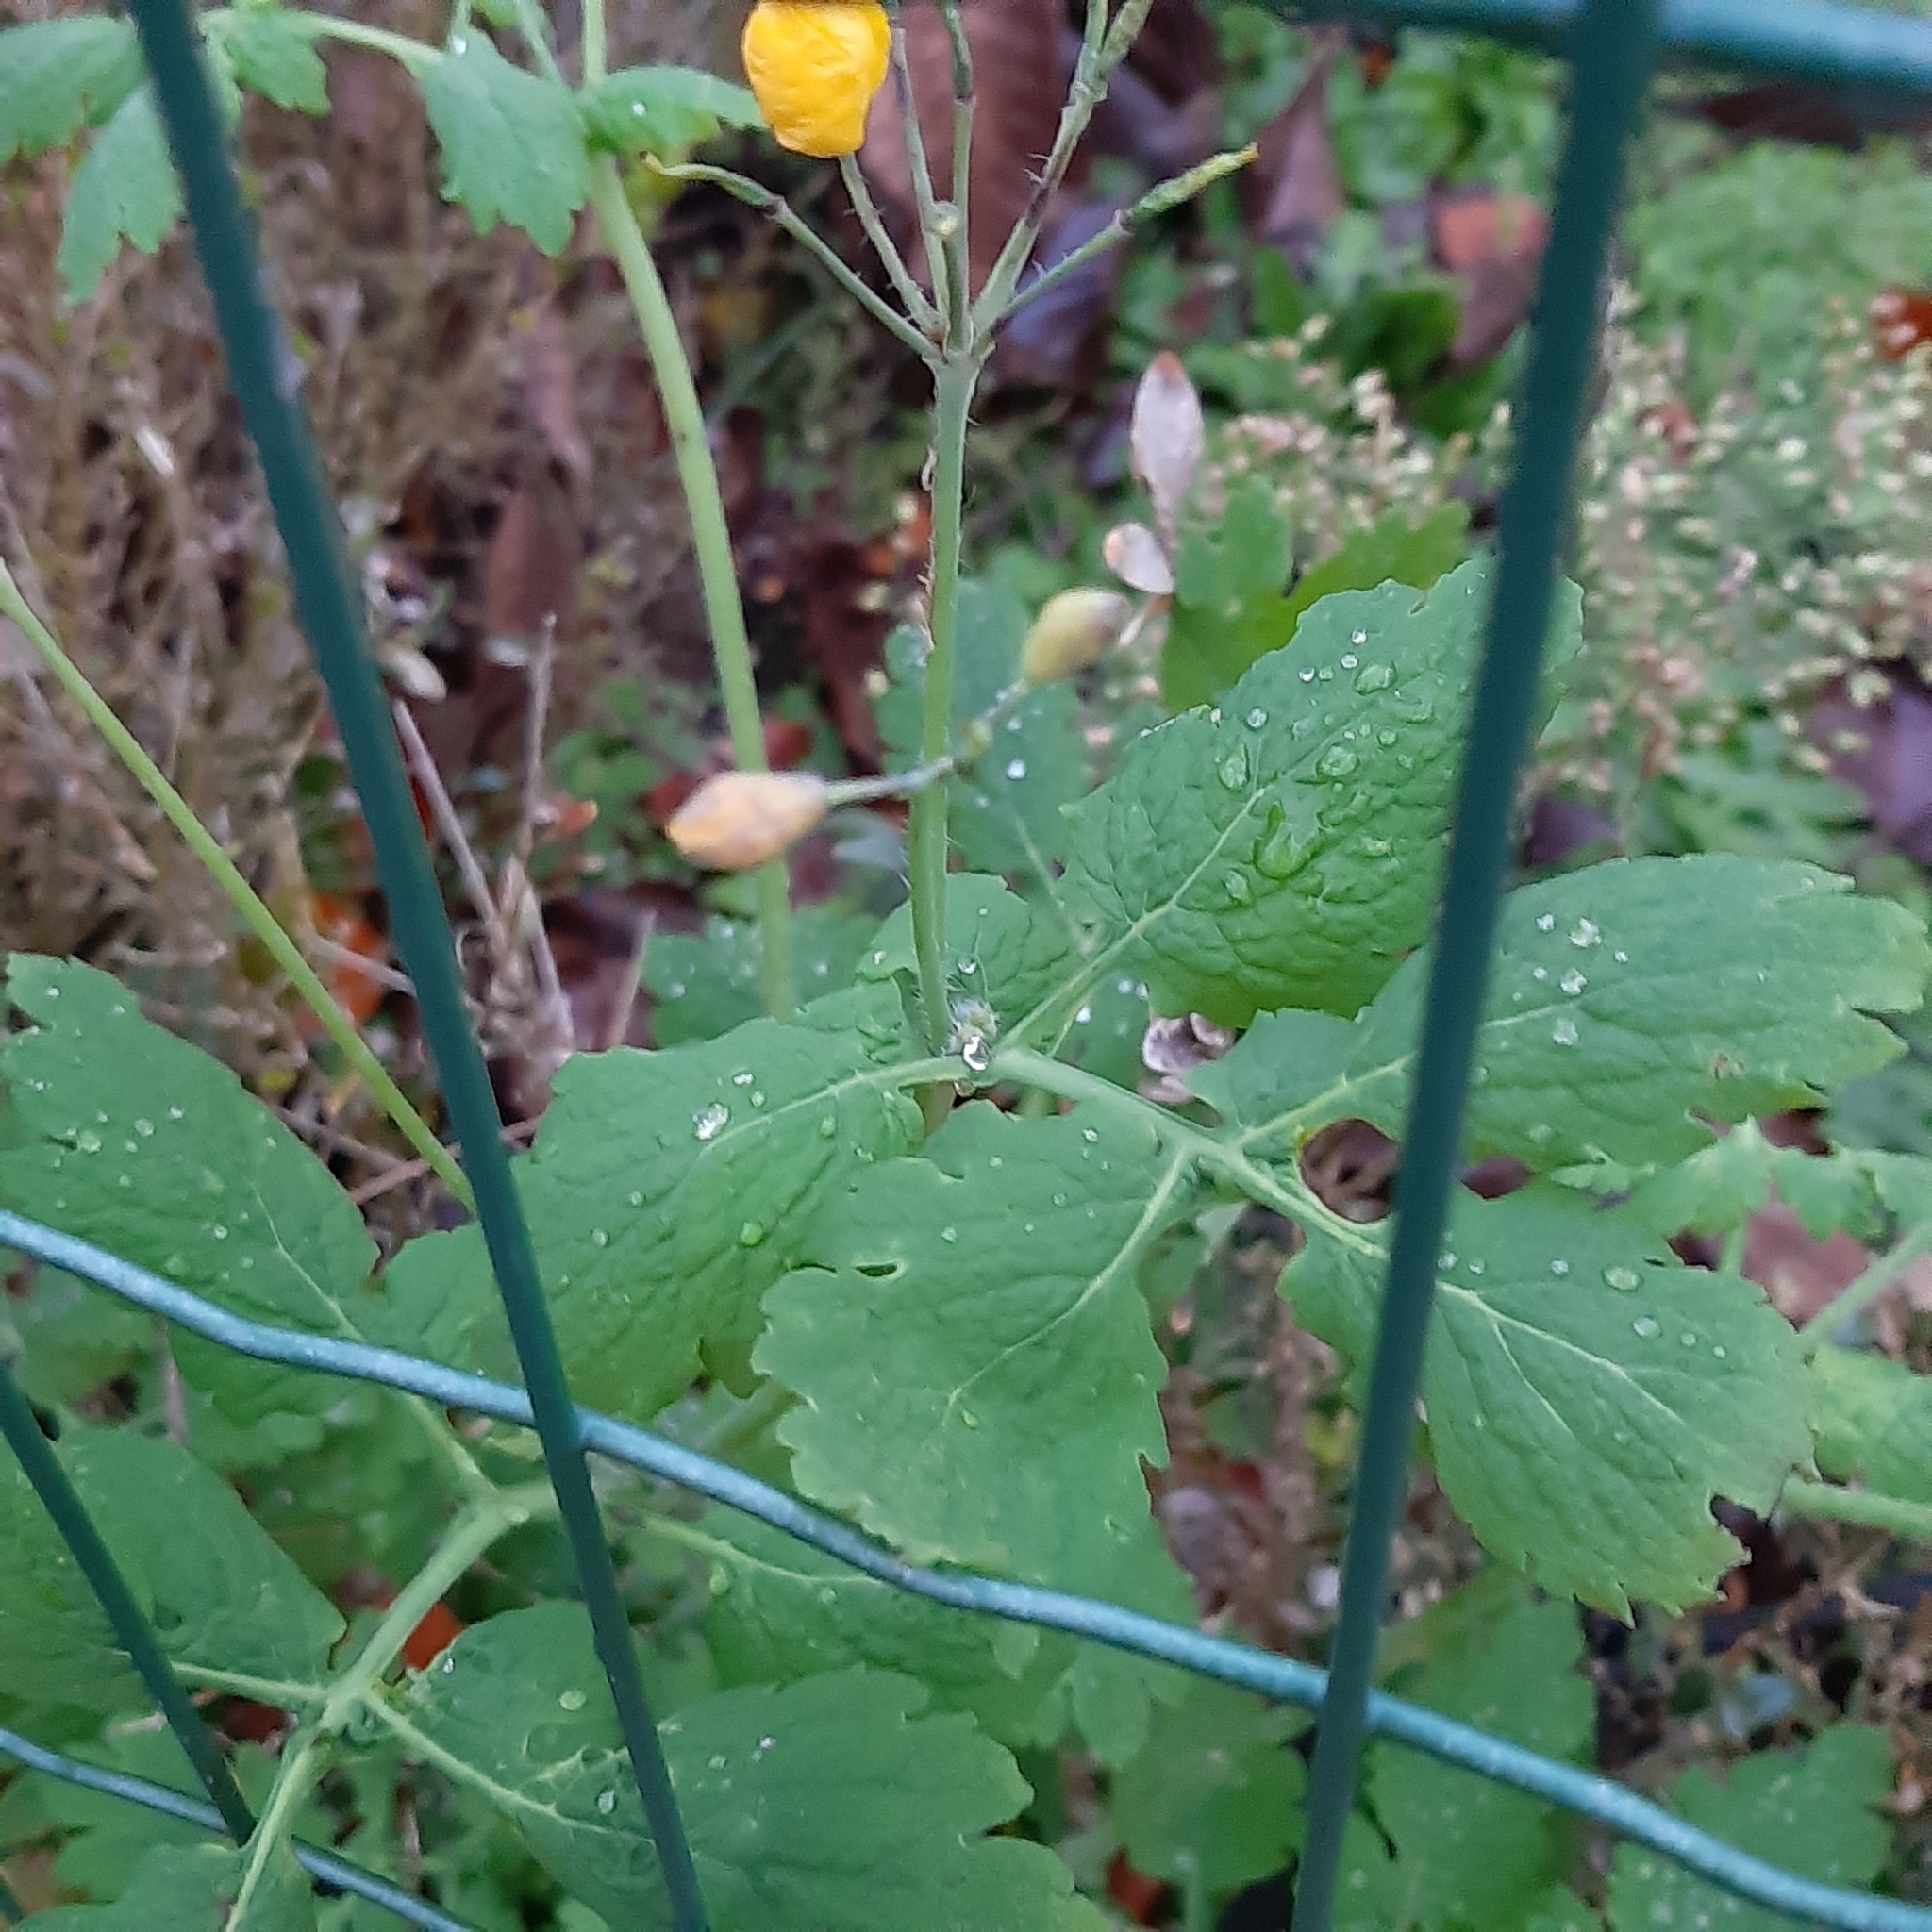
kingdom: Plantae
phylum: Tracheophyta
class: Magnoliopsida
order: Ranunculales
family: Papaveraceae
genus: Chelidonium
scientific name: Chelidonium majus
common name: Greater celandine
